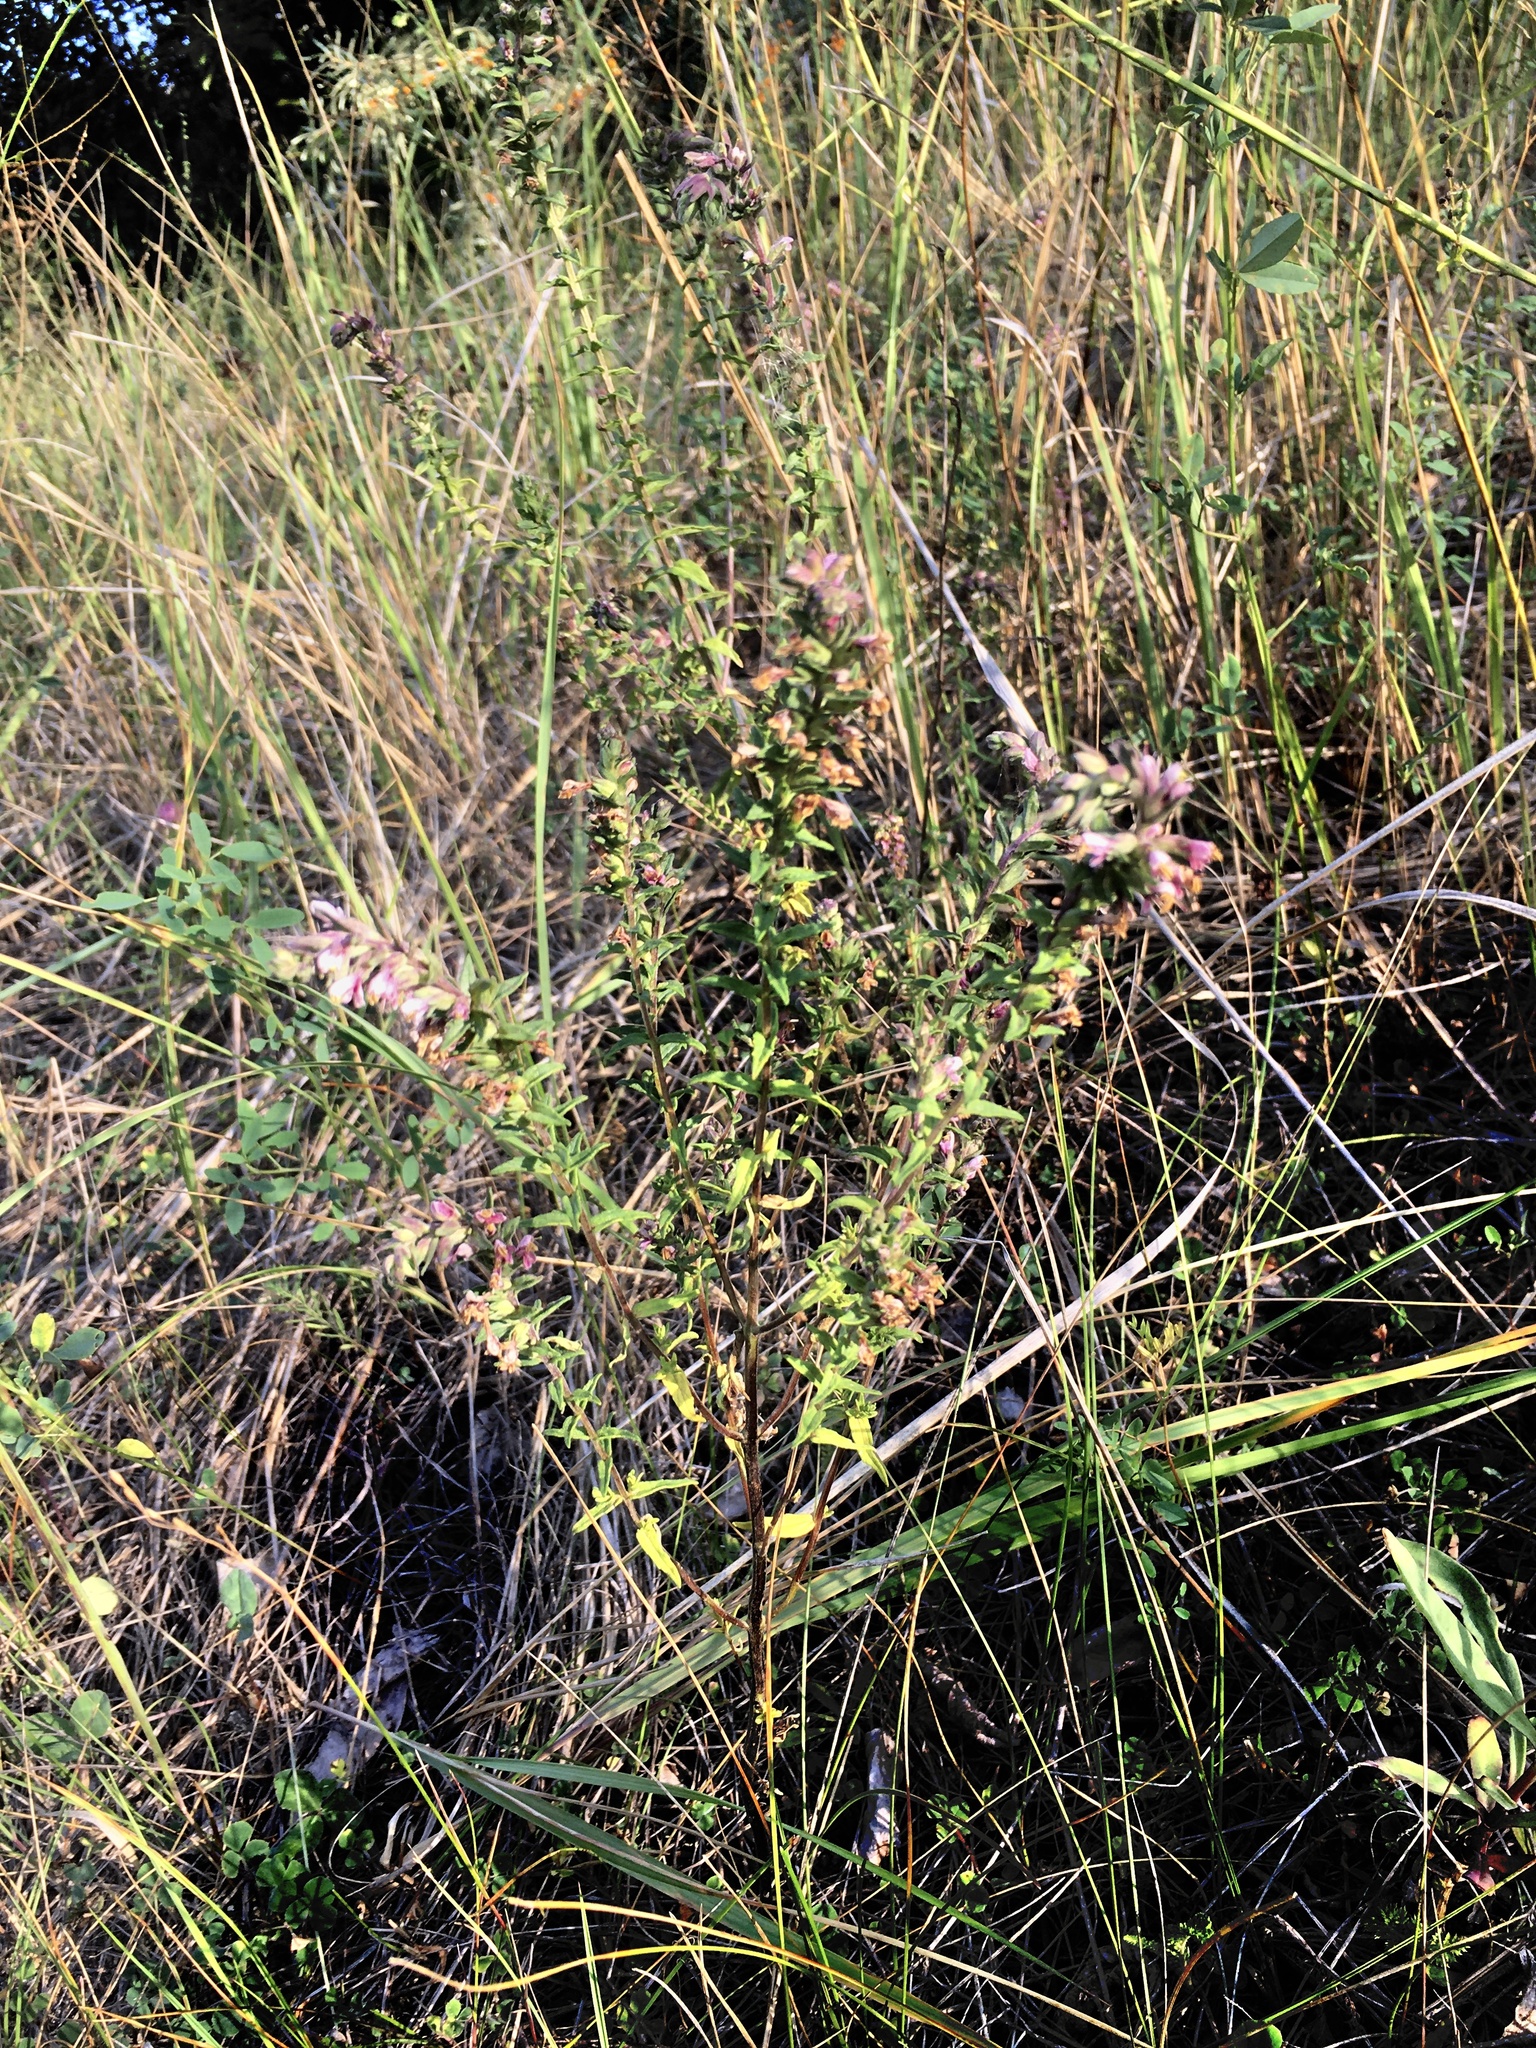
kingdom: Plantae
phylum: Tracheophyta
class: Magnoliopsida
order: Lamiales
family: Orobanchaceae
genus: Odontites
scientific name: Odontites vulgaris
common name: Broomrape
